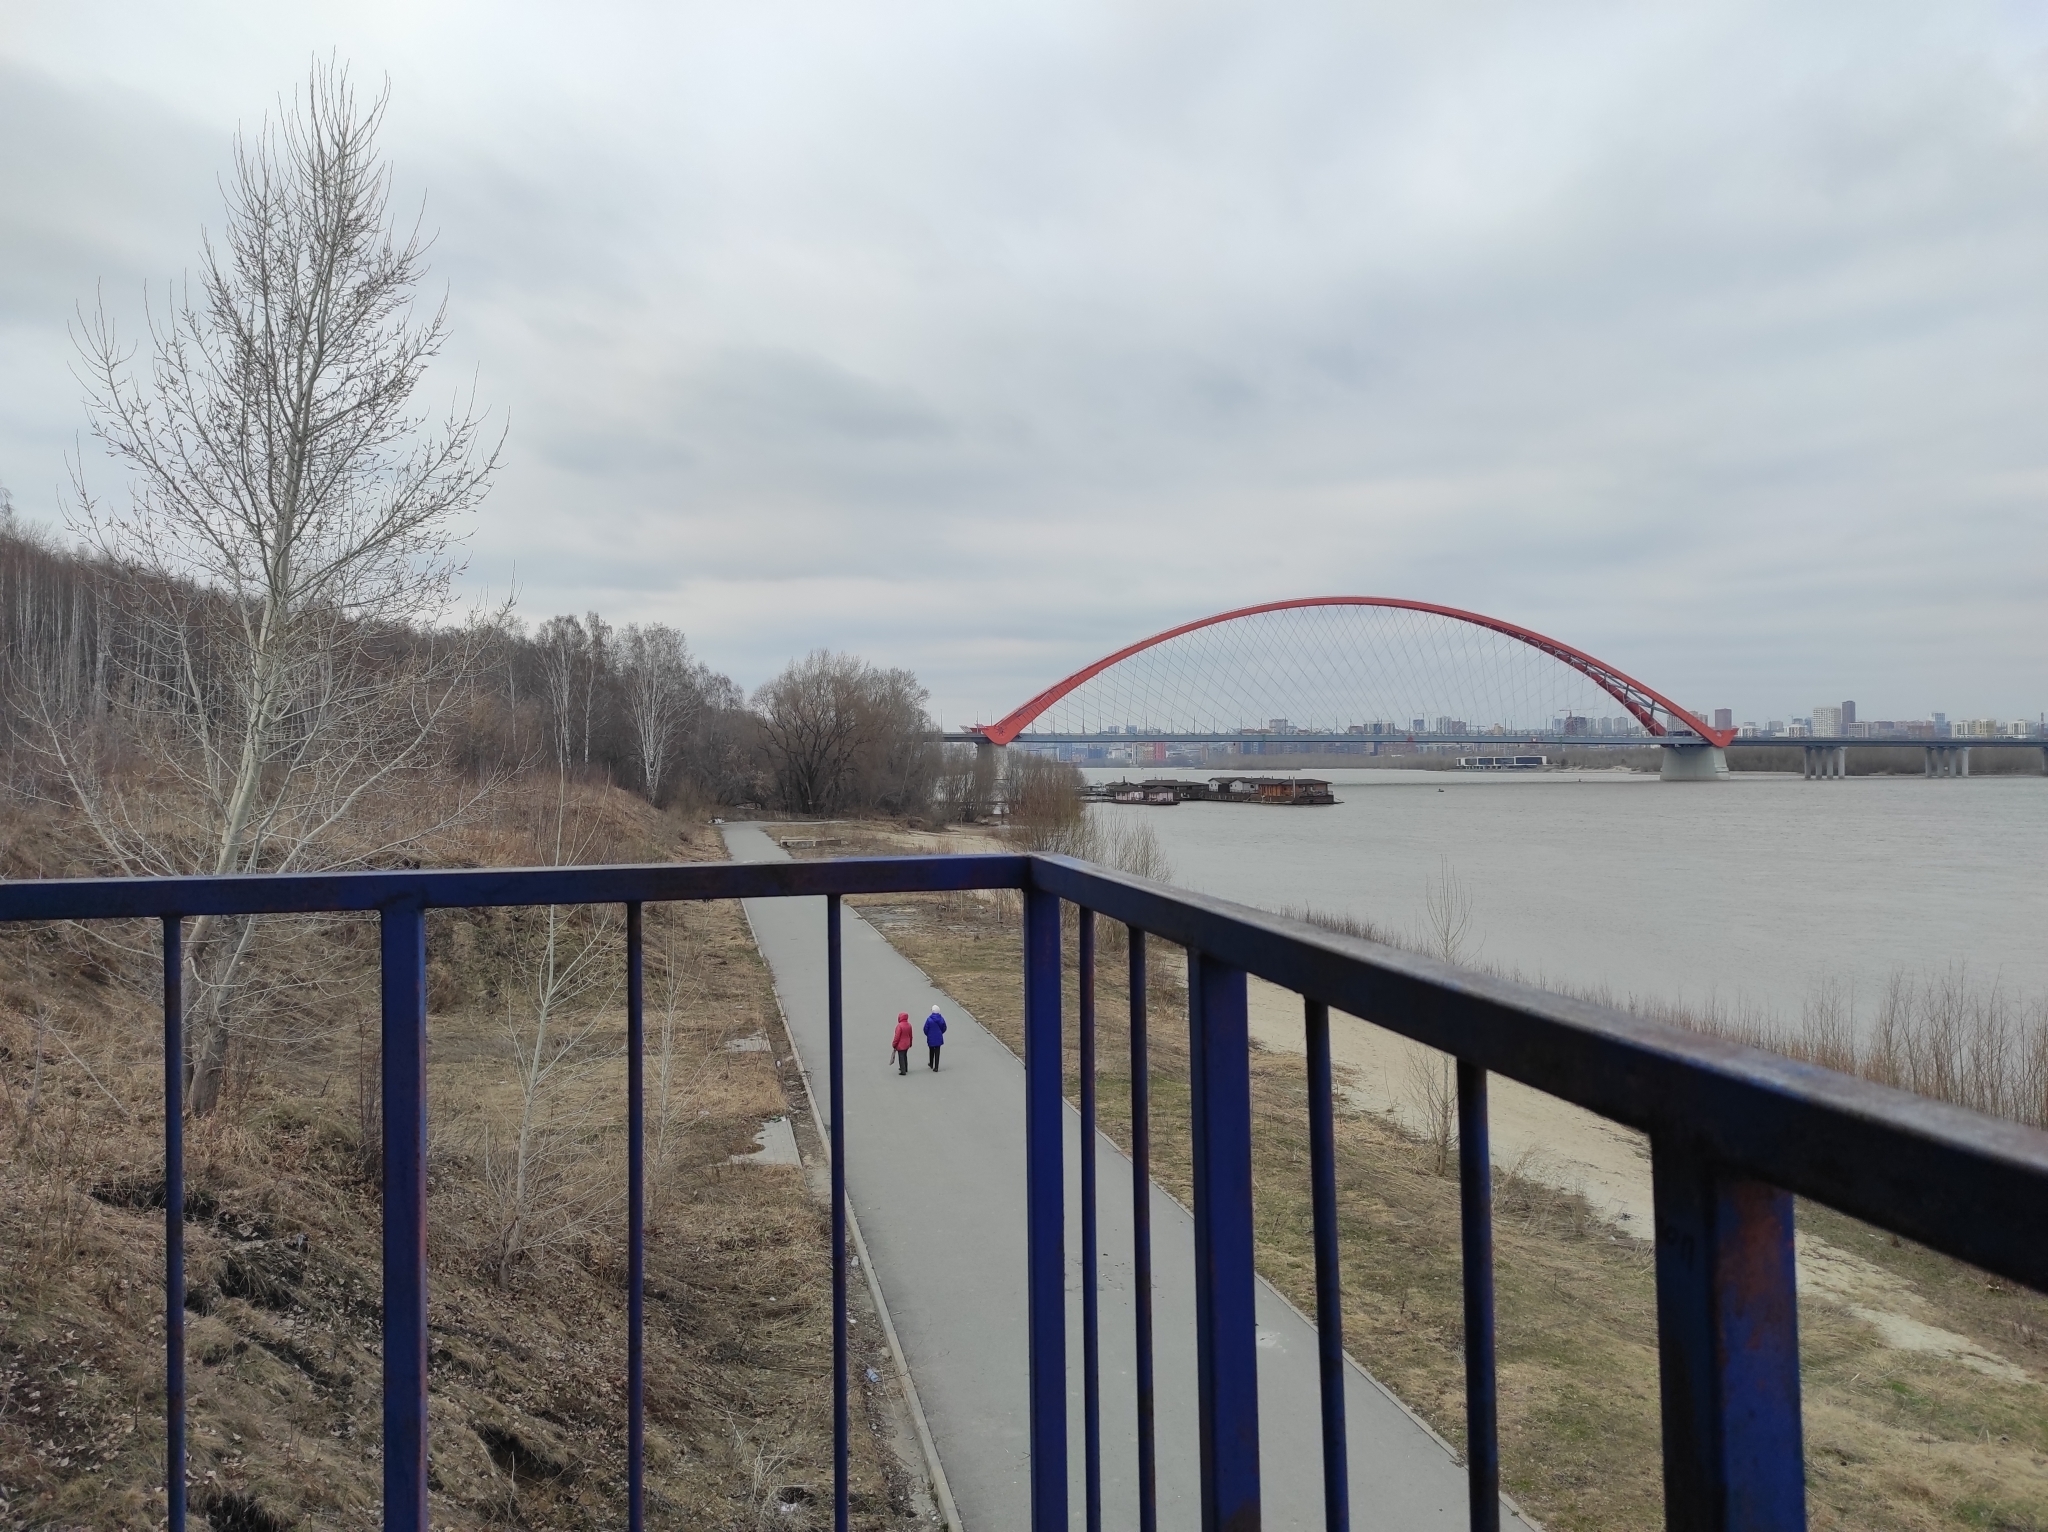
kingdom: Plantae
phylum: Tracheophyta
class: Magnoliopsida
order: Malpighiales
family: Salicaceae
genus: Populus
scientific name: Populus tremula
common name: European aspen
